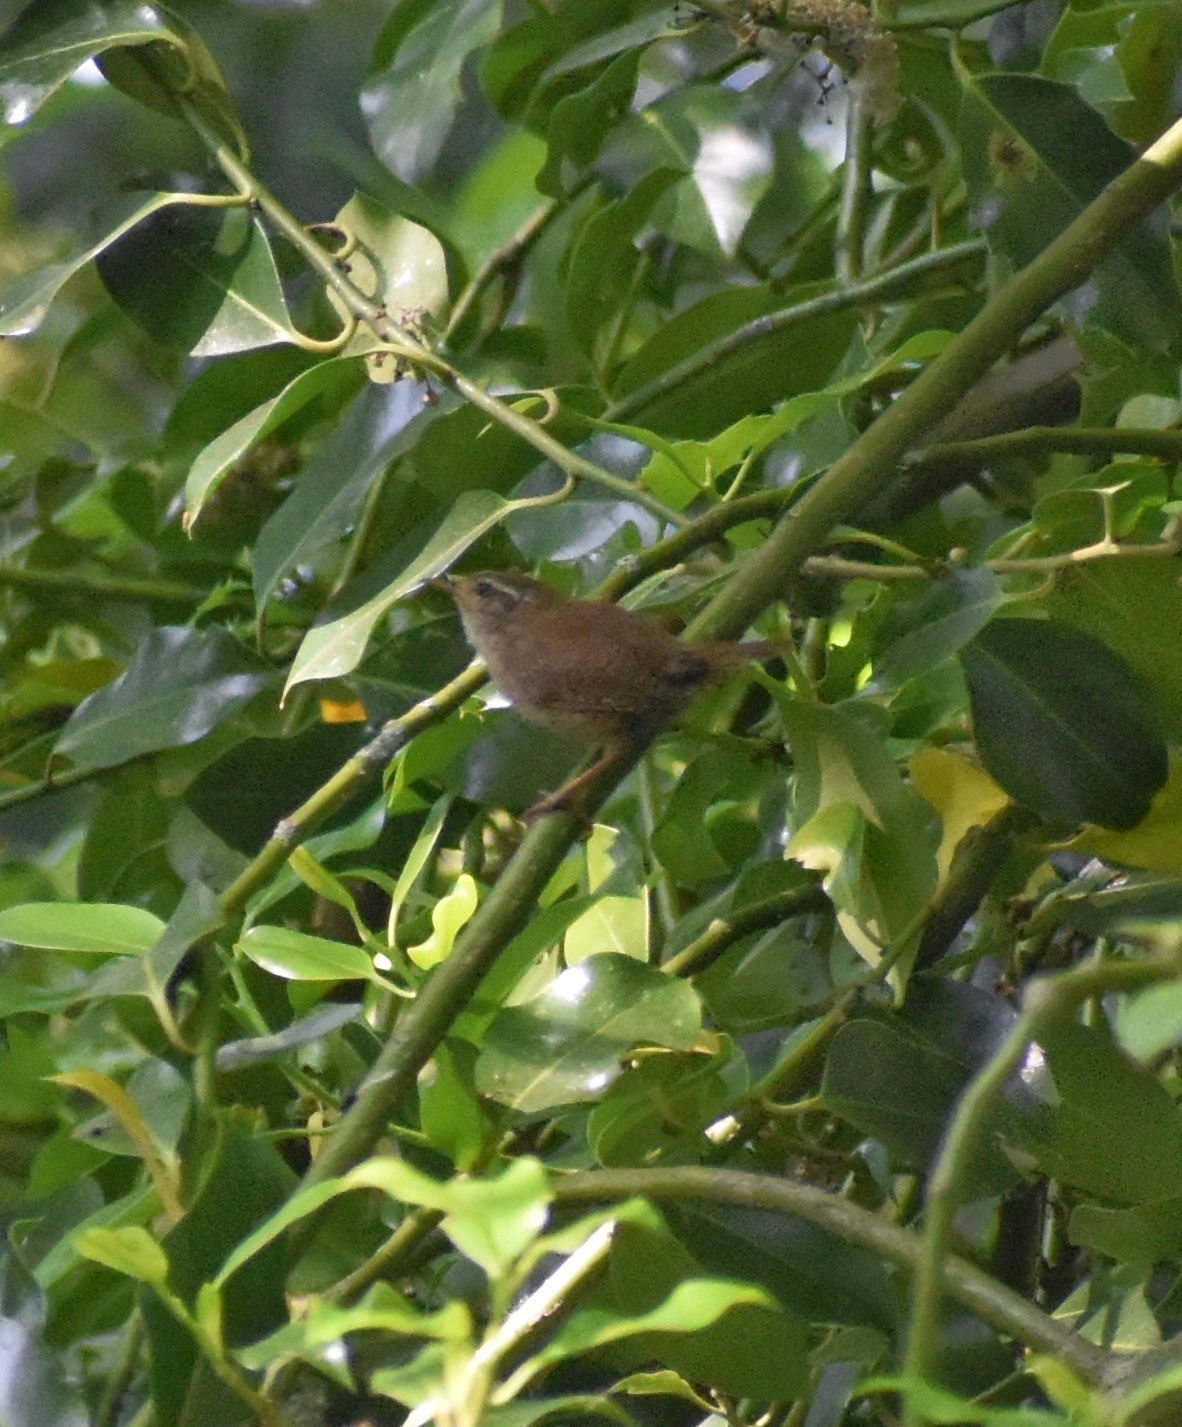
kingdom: Animalia
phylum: Chordata
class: Aves
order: Passeriformes
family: Troglodytidae
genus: Troglodytes
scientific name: Troglodytes troglodytes
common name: Eurasian wren
